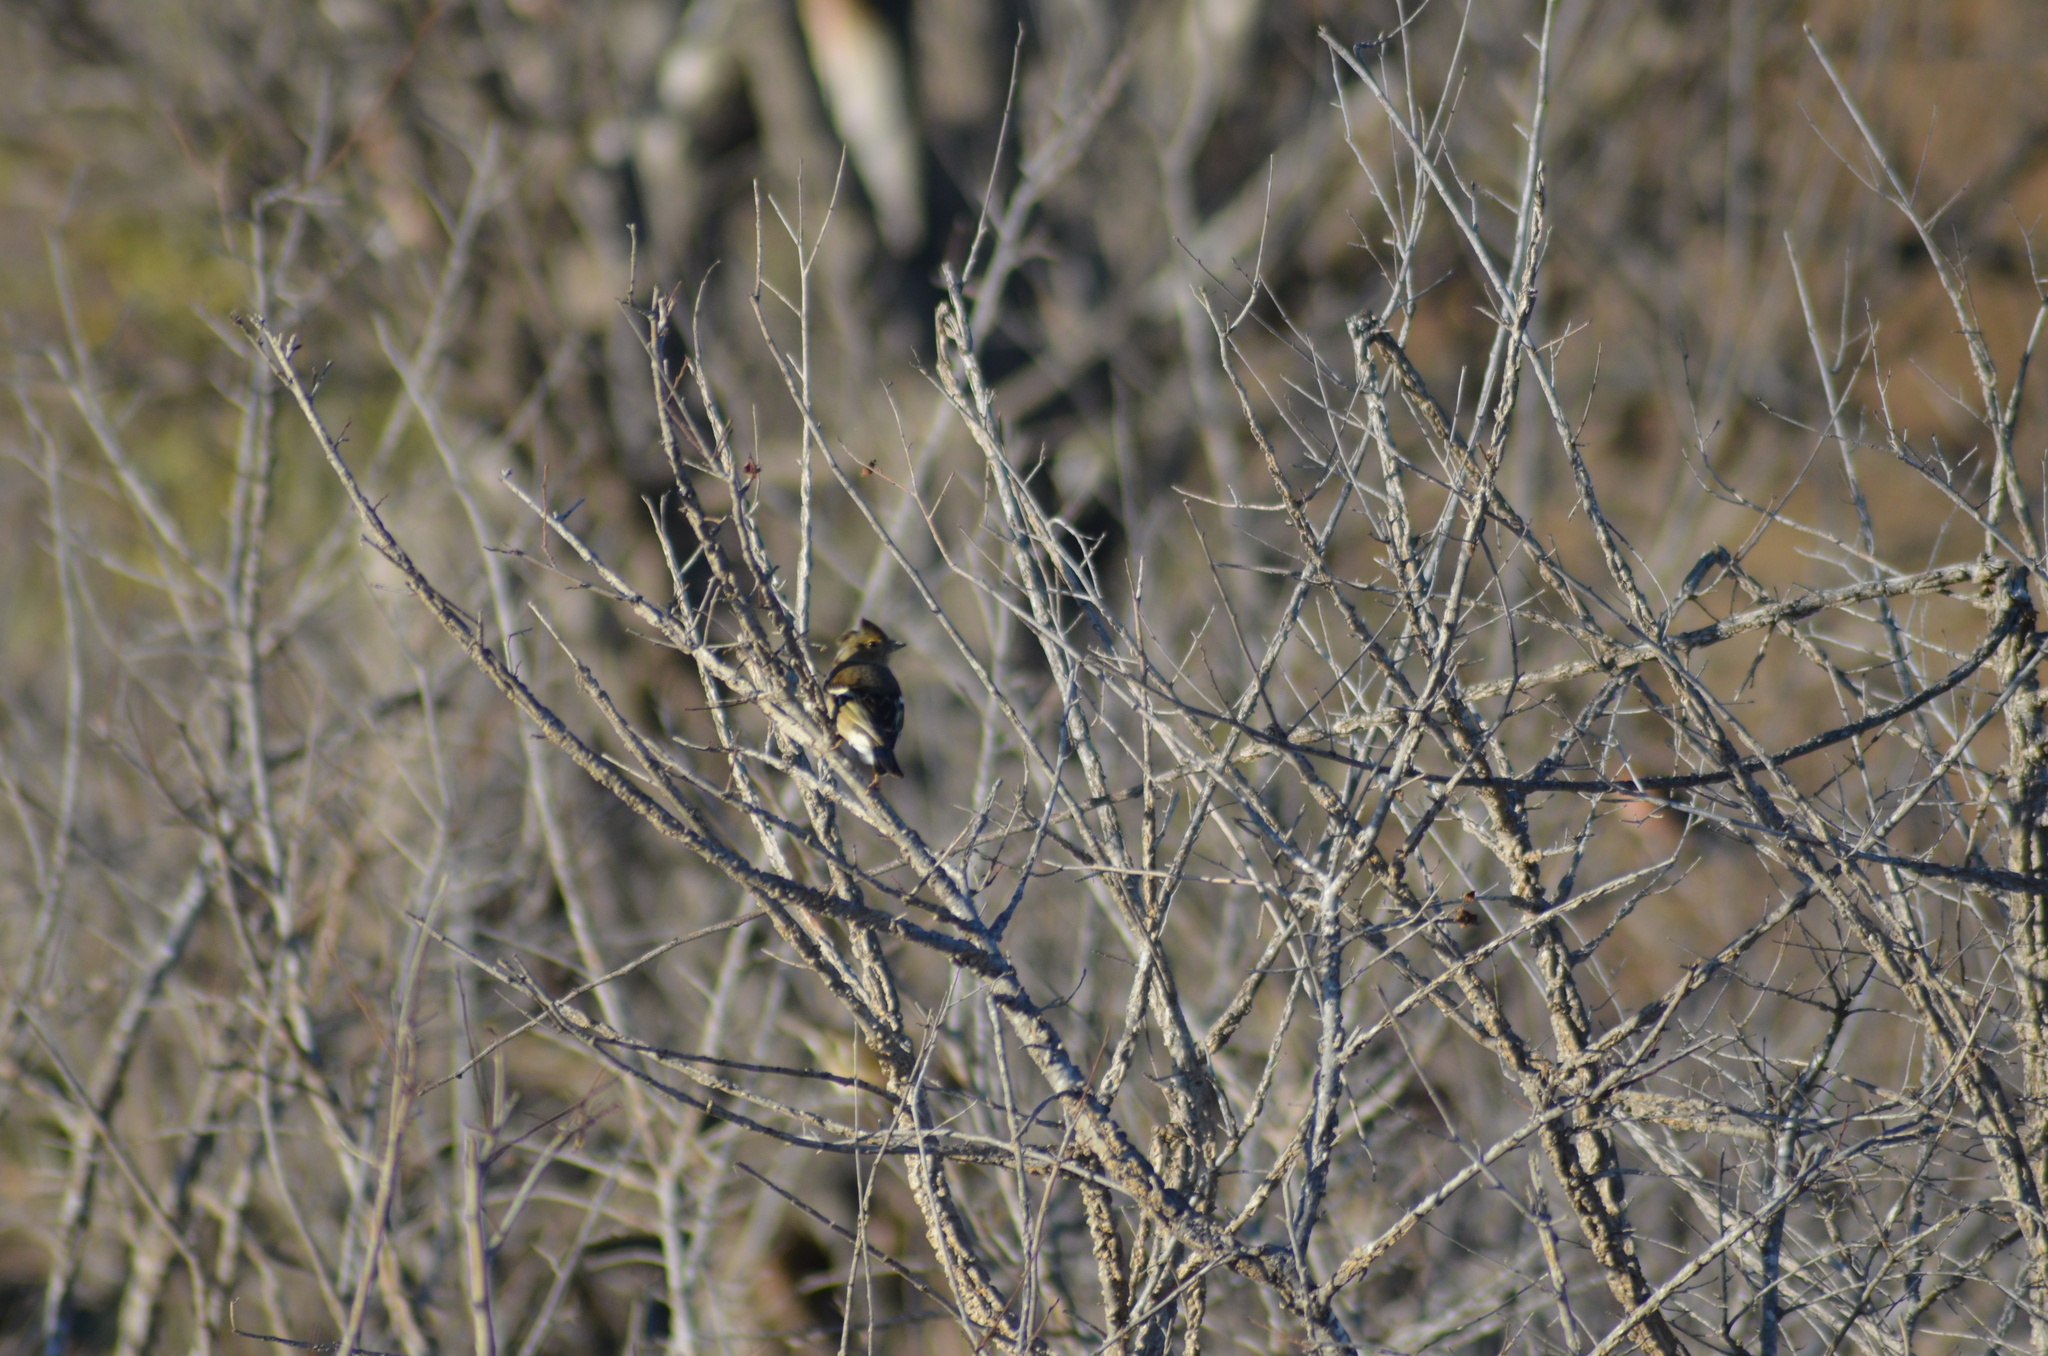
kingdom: Animalia
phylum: Chordata
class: Aves
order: Passeriformes
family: Fringillidae
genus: Fringilla
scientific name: Fringilla coelebs
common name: Common chaffinch
